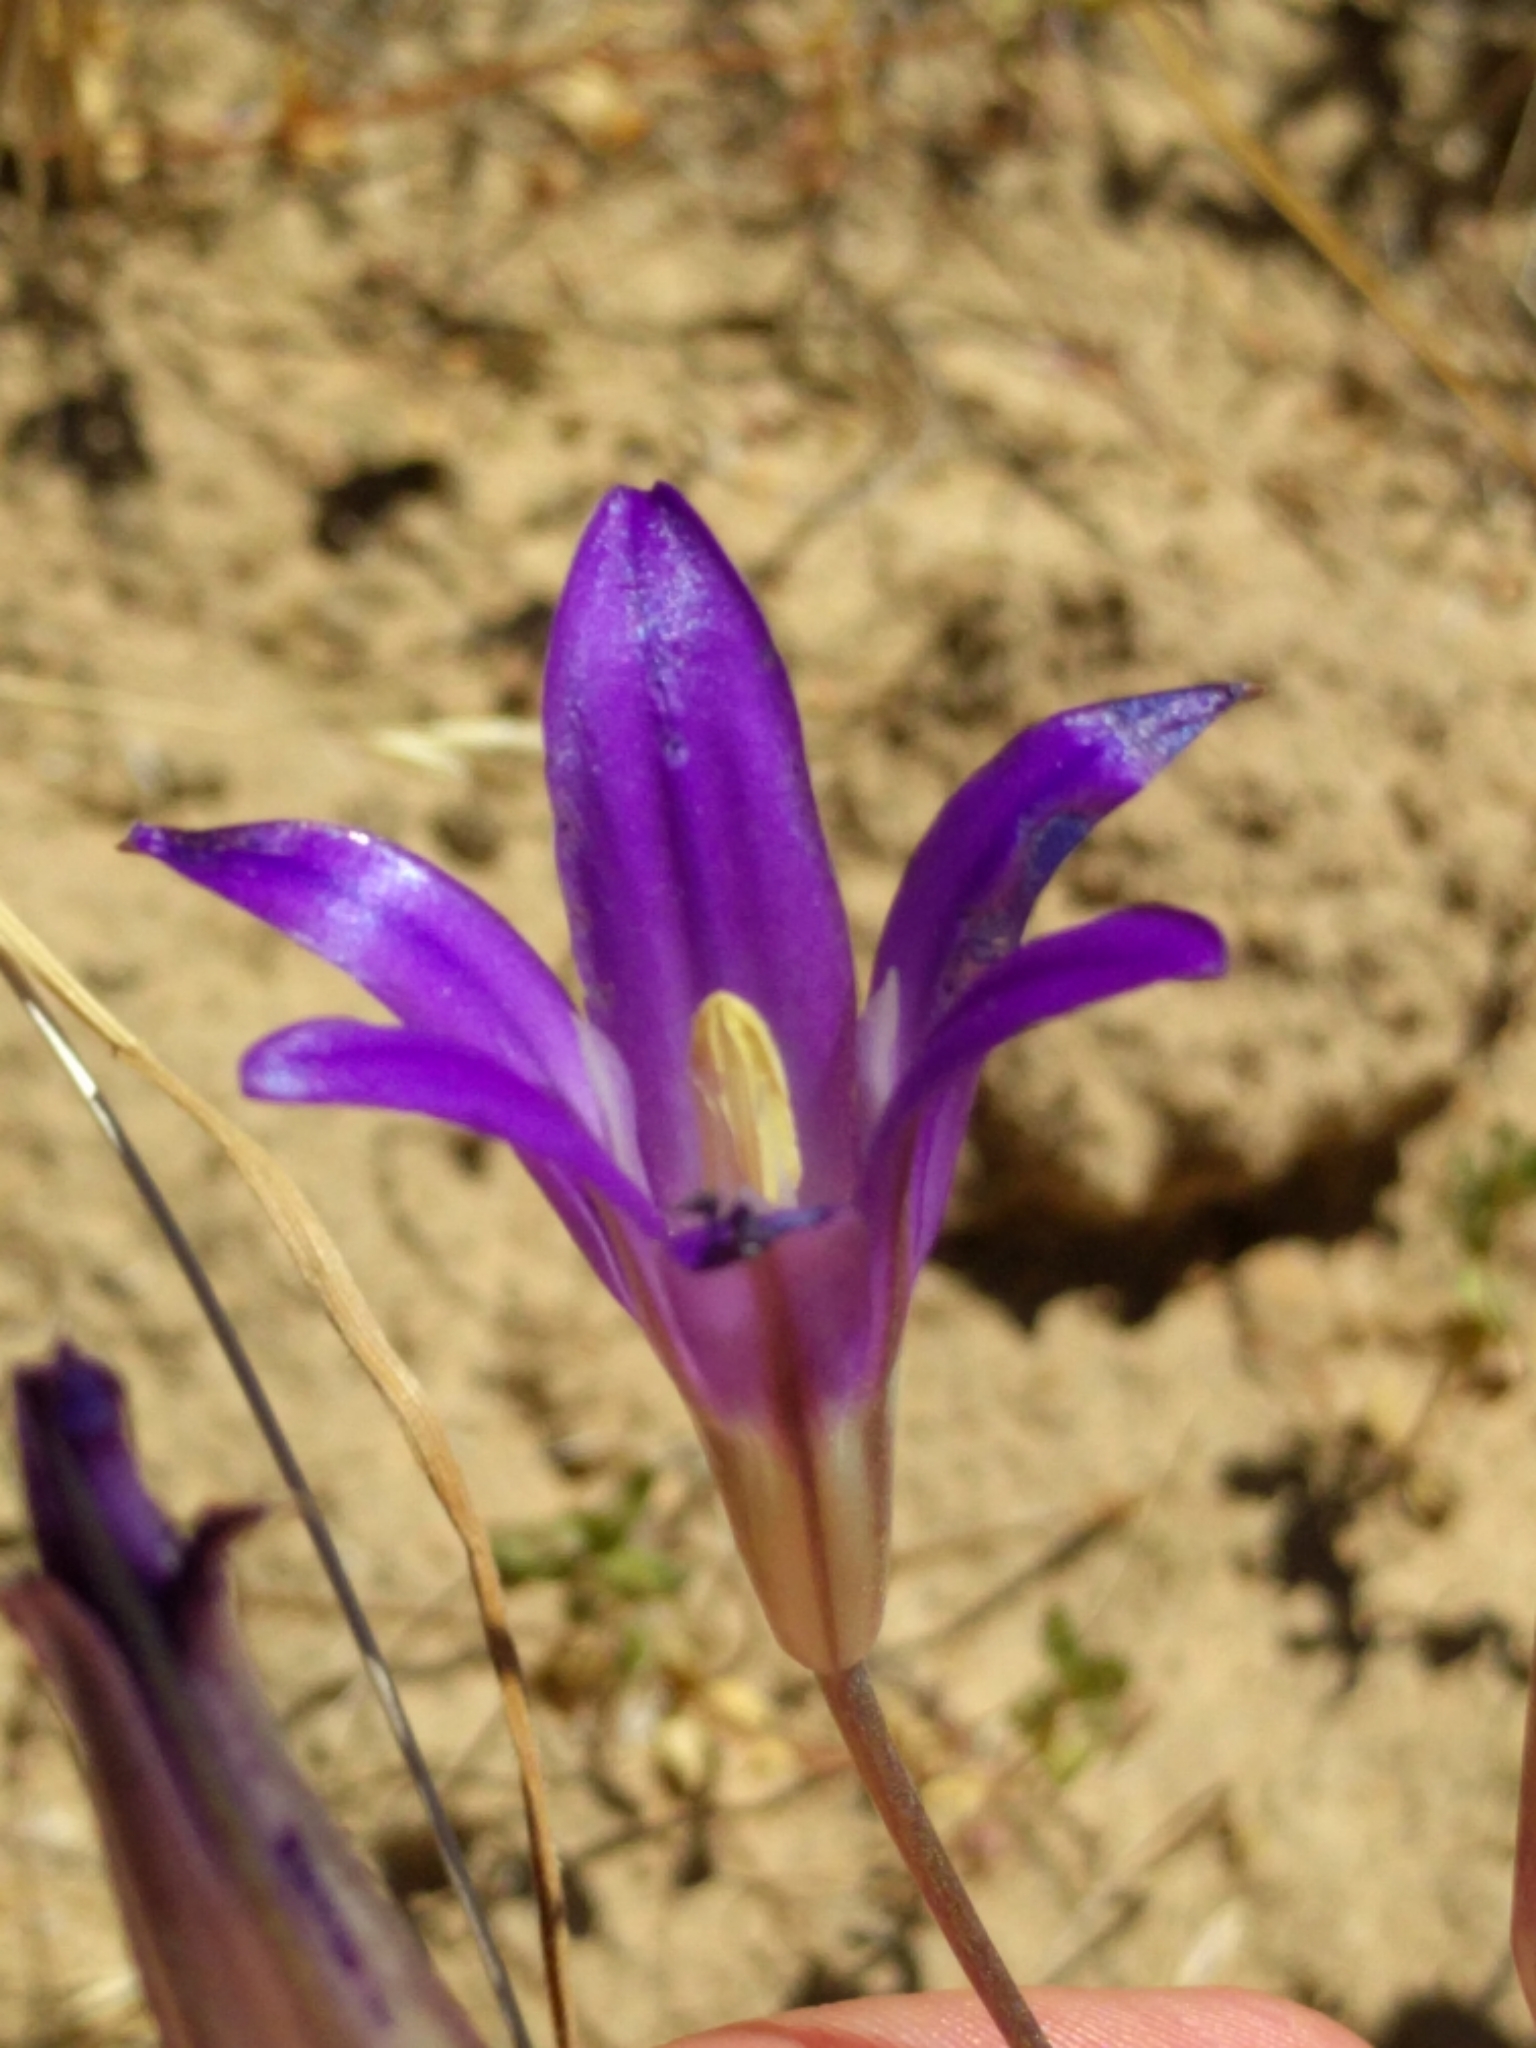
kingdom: Plantae
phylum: Tracheophyta
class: Liliopsida
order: Asparagales
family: Asparagaceae
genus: Brodiaea
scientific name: Brodiaea elegans
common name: Elegant cluster-lily
